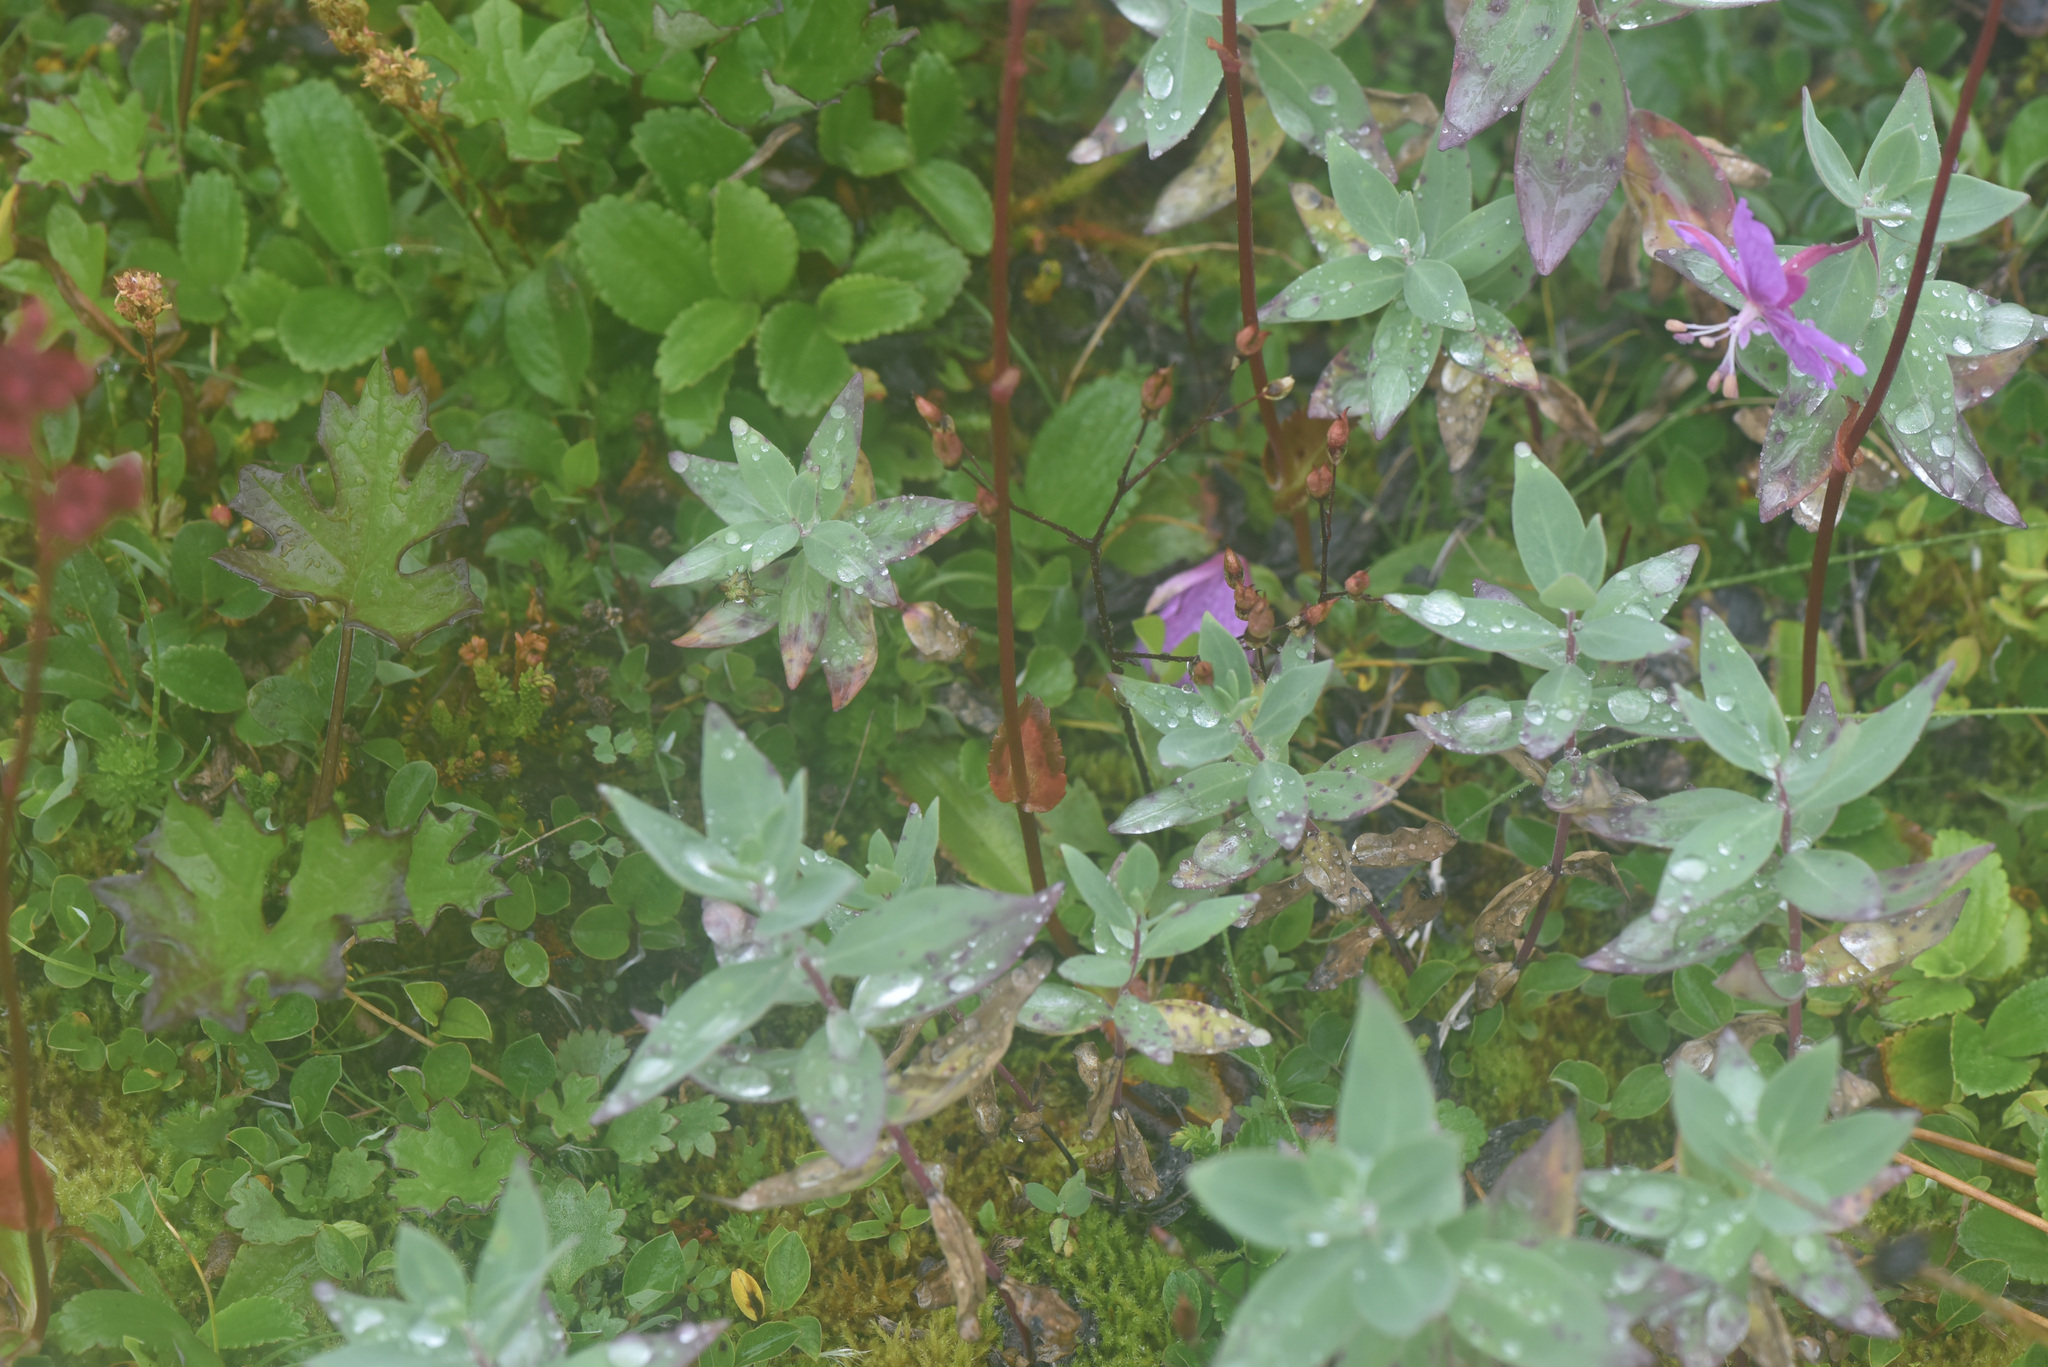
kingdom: Plantae
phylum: Tracheophyta
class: Magnoliopsida
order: Myrtales
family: Onagraceae
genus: Chamaenerion
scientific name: Chamaenerion latifolium
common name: Dwarf fireweed
